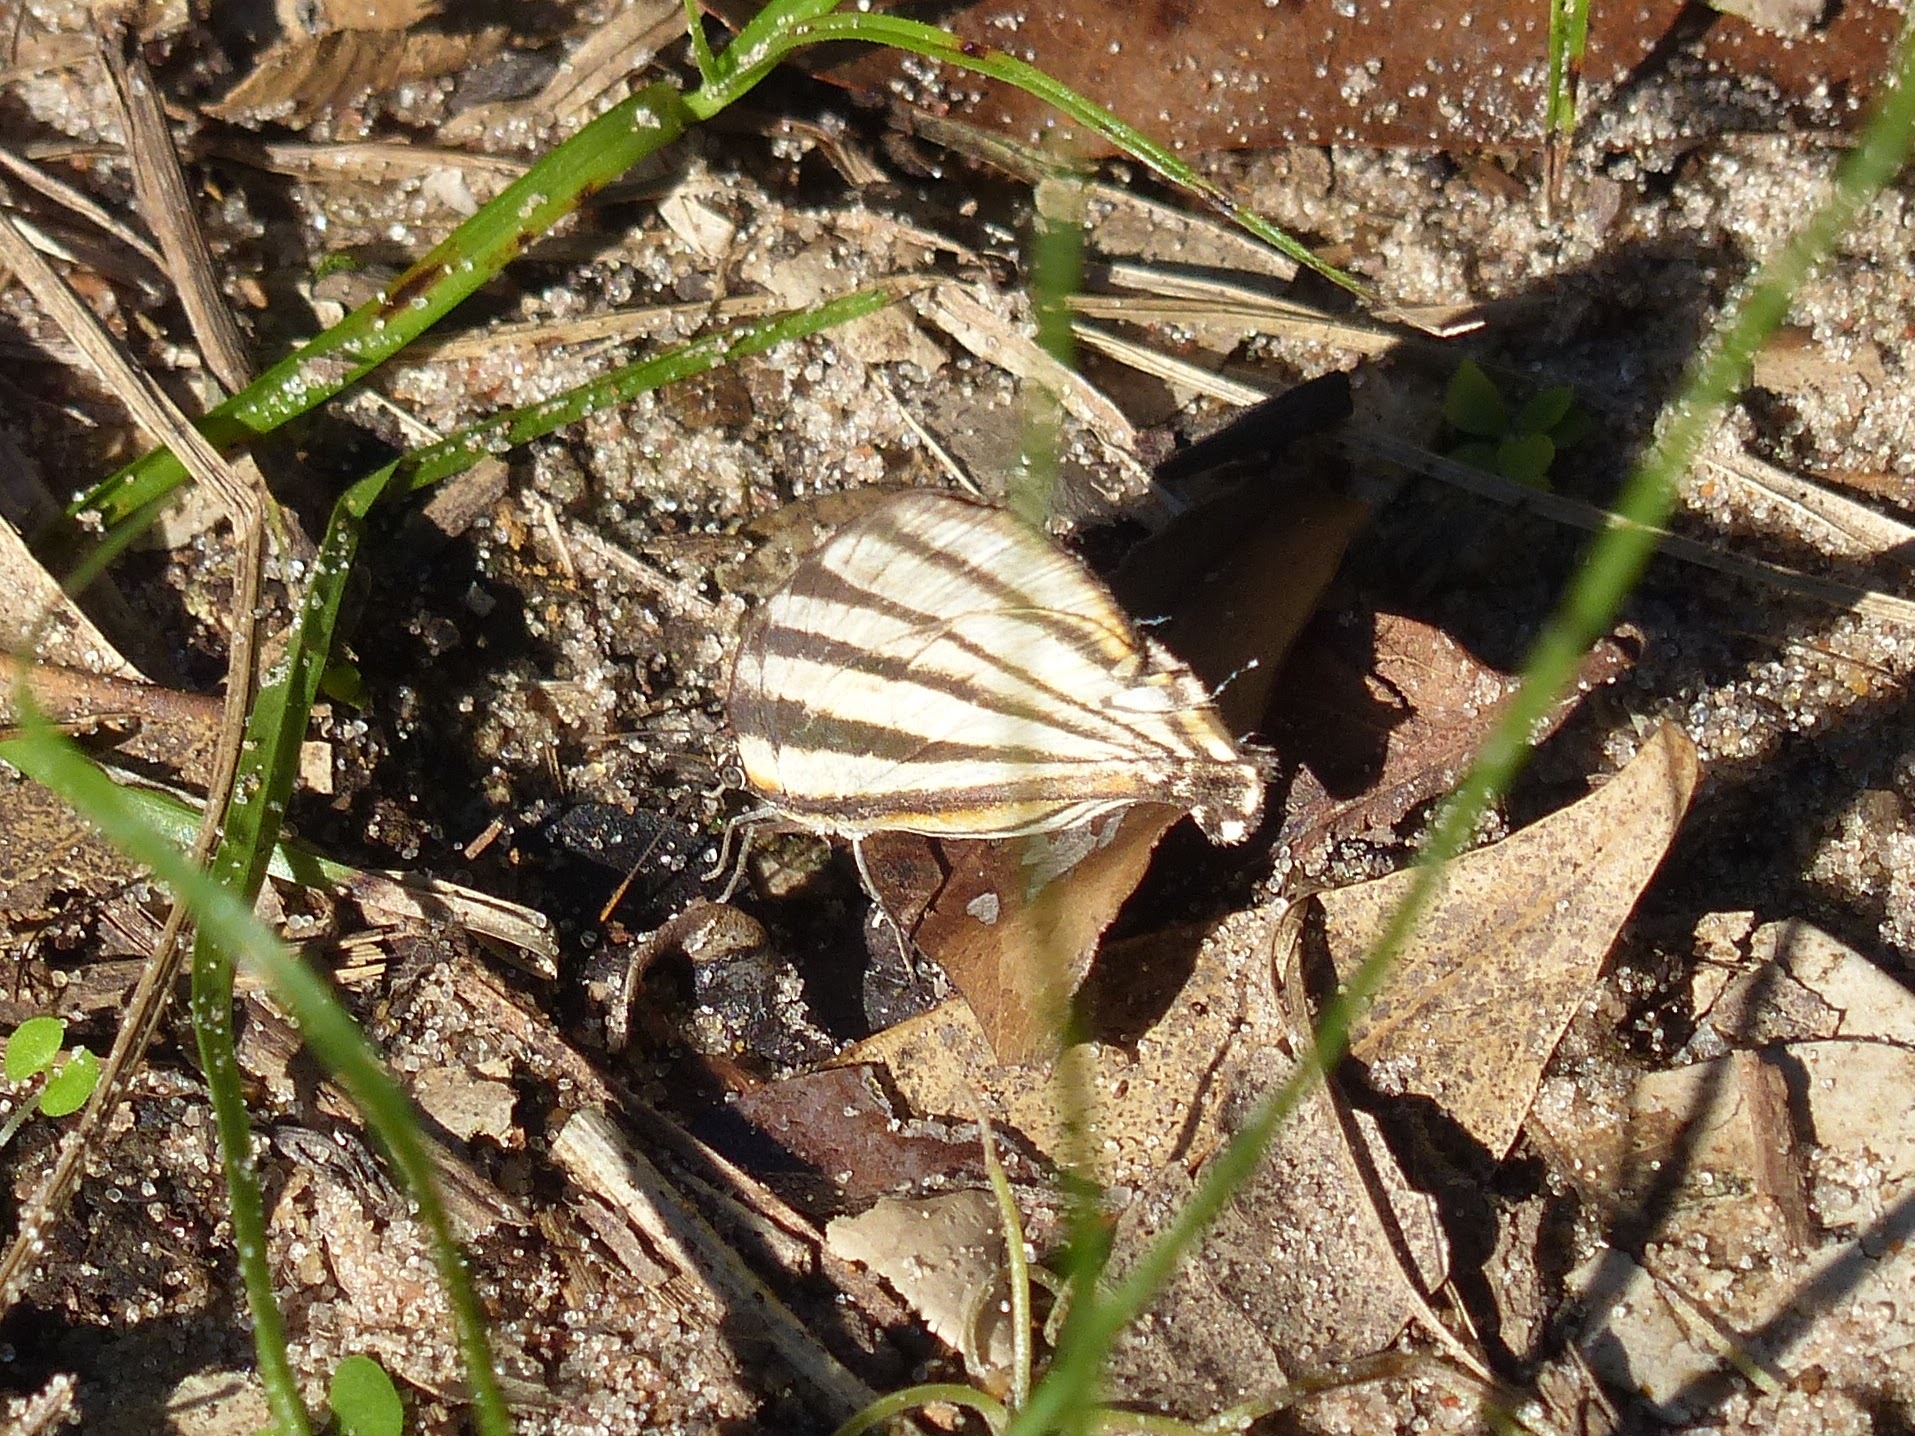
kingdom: Animalia
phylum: Arthropoda
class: Insecta
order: Lepidoptera
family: Lycaenidae
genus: Arawacus
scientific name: Arawacus separata
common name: Separated stripestreak
